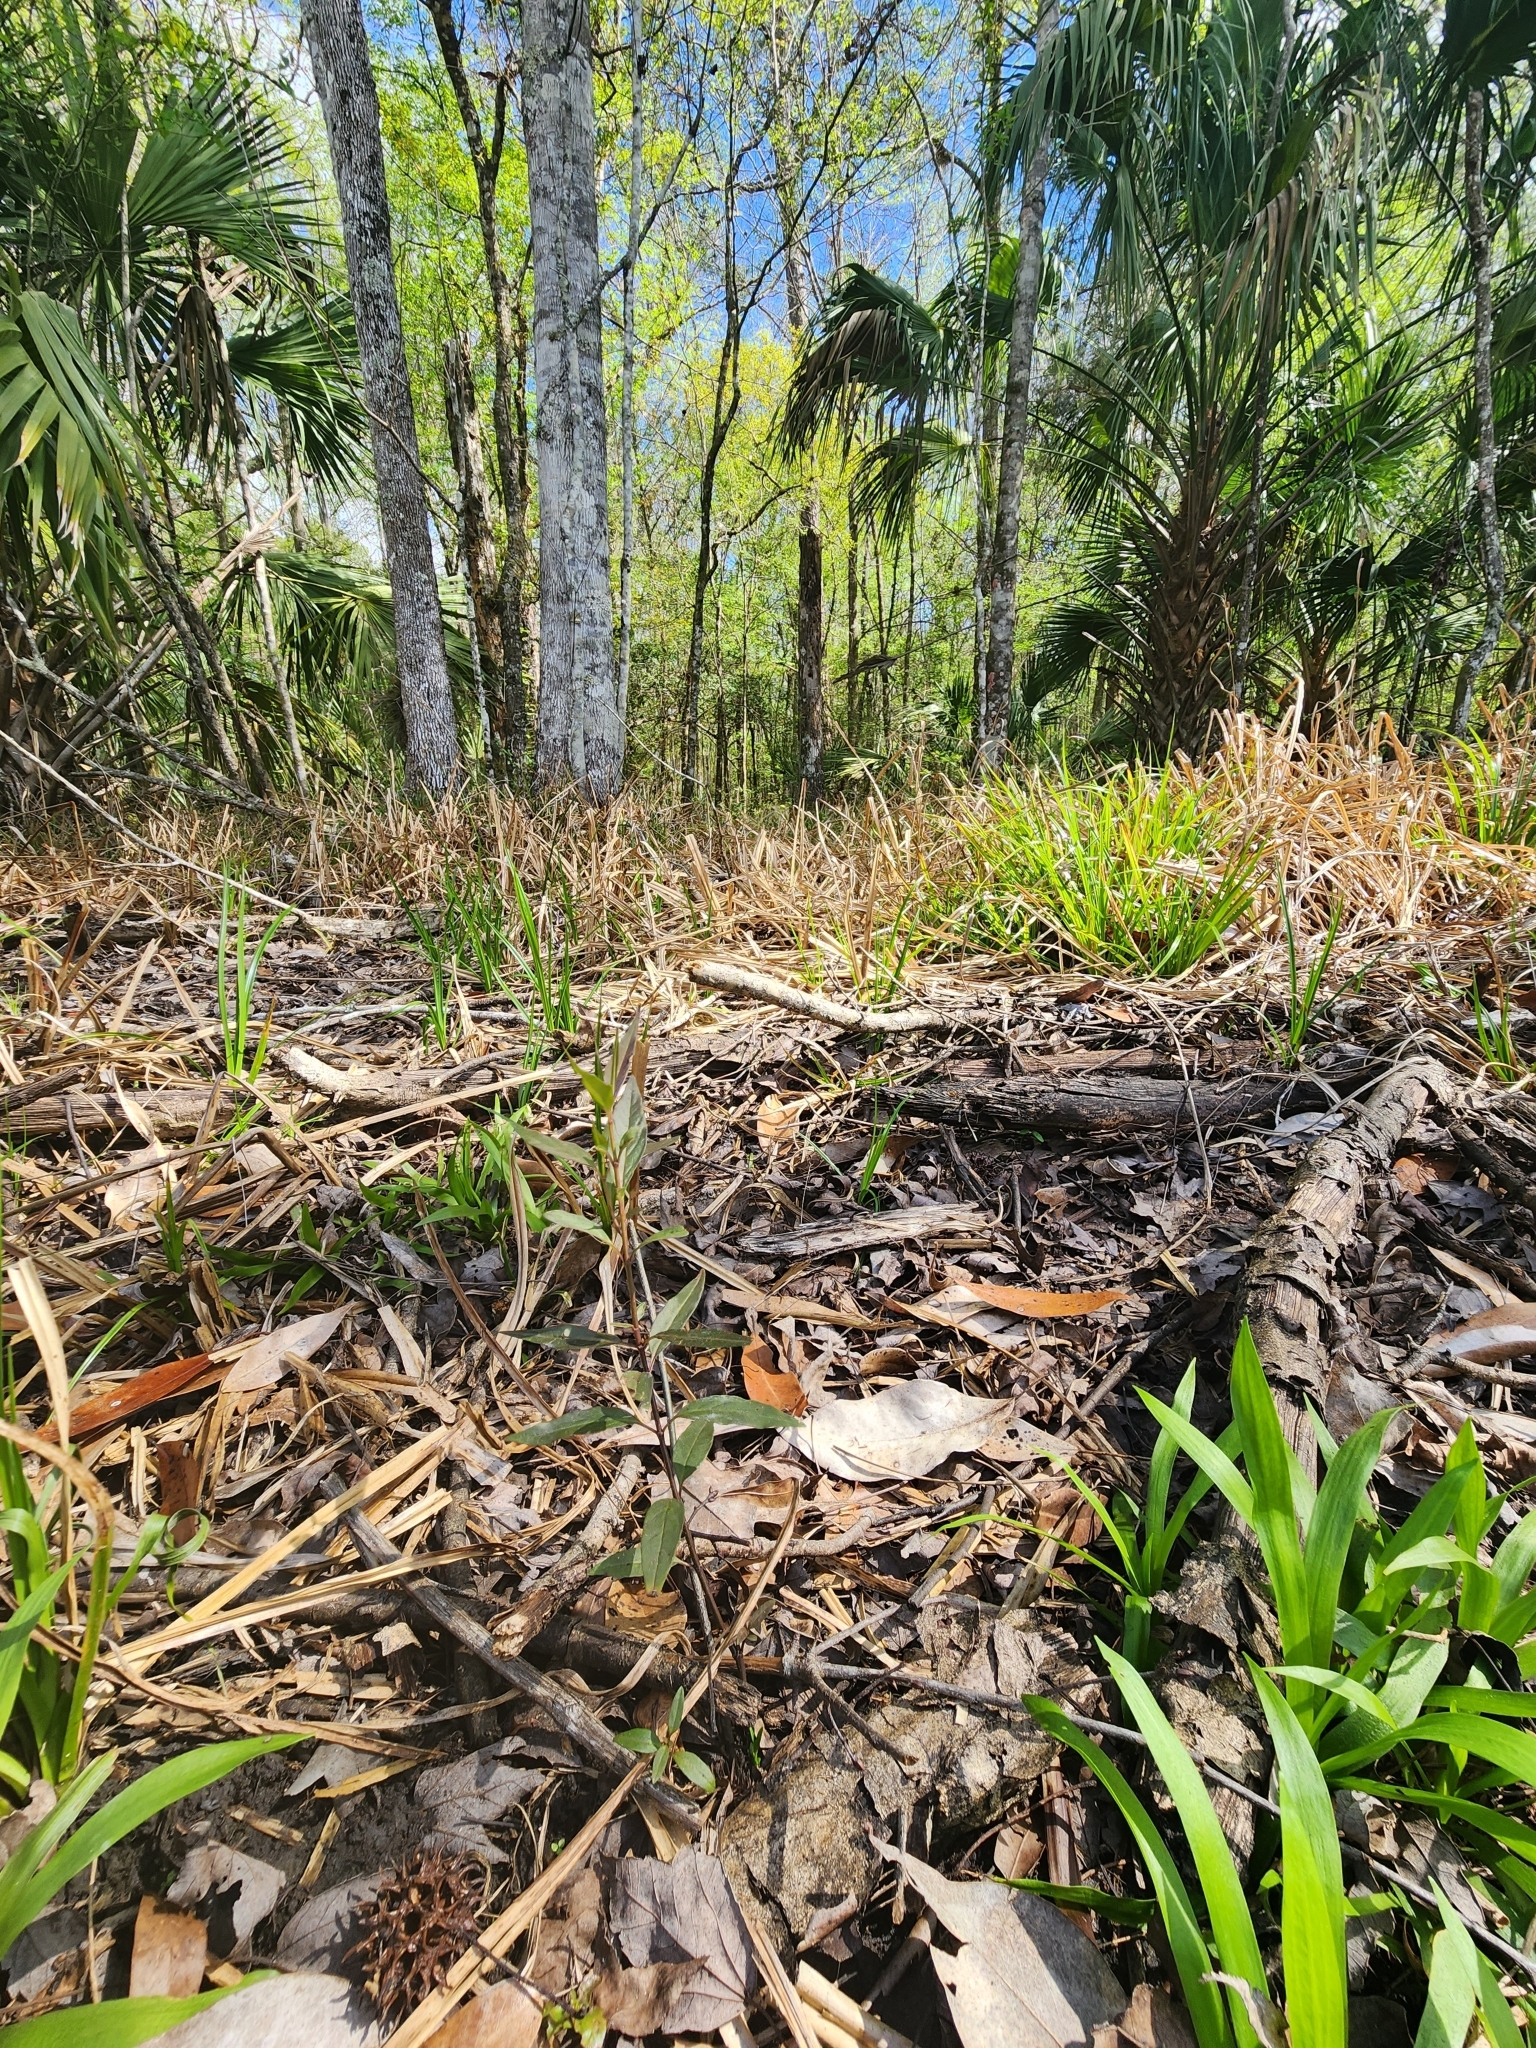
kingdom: Plantae
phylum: Tracheophyta
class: Magnoliopsida
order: Ranunculales
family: Ranunculaceae
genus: Ranunculus
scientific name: Ranunculus hispidus
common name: Bristly buttercup
